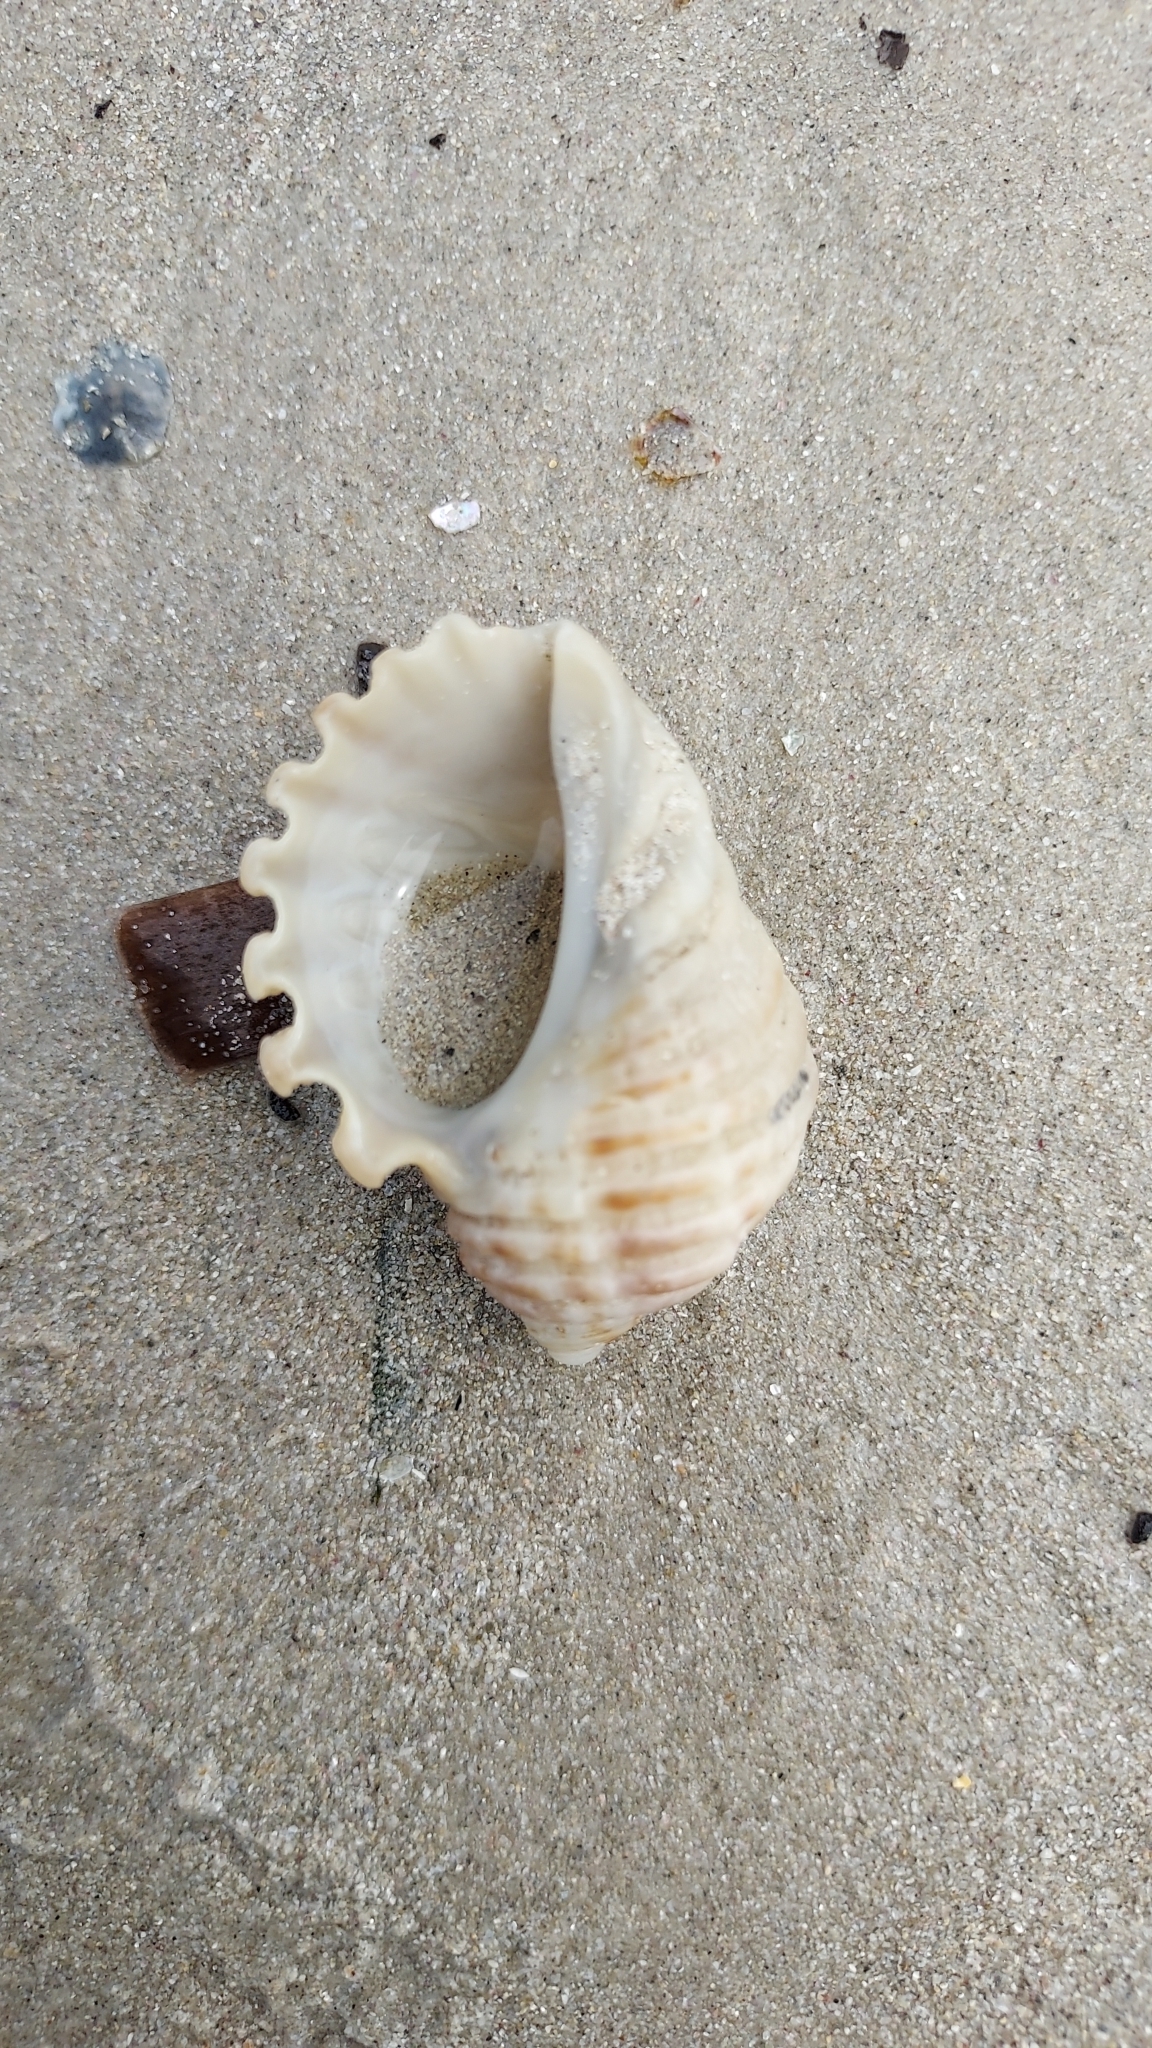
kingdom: Animalia
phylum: Mollusca
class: Gastropoda
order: Neogastropoda
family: Muricidae
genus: Dicathais
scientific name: Dicathais orbita
